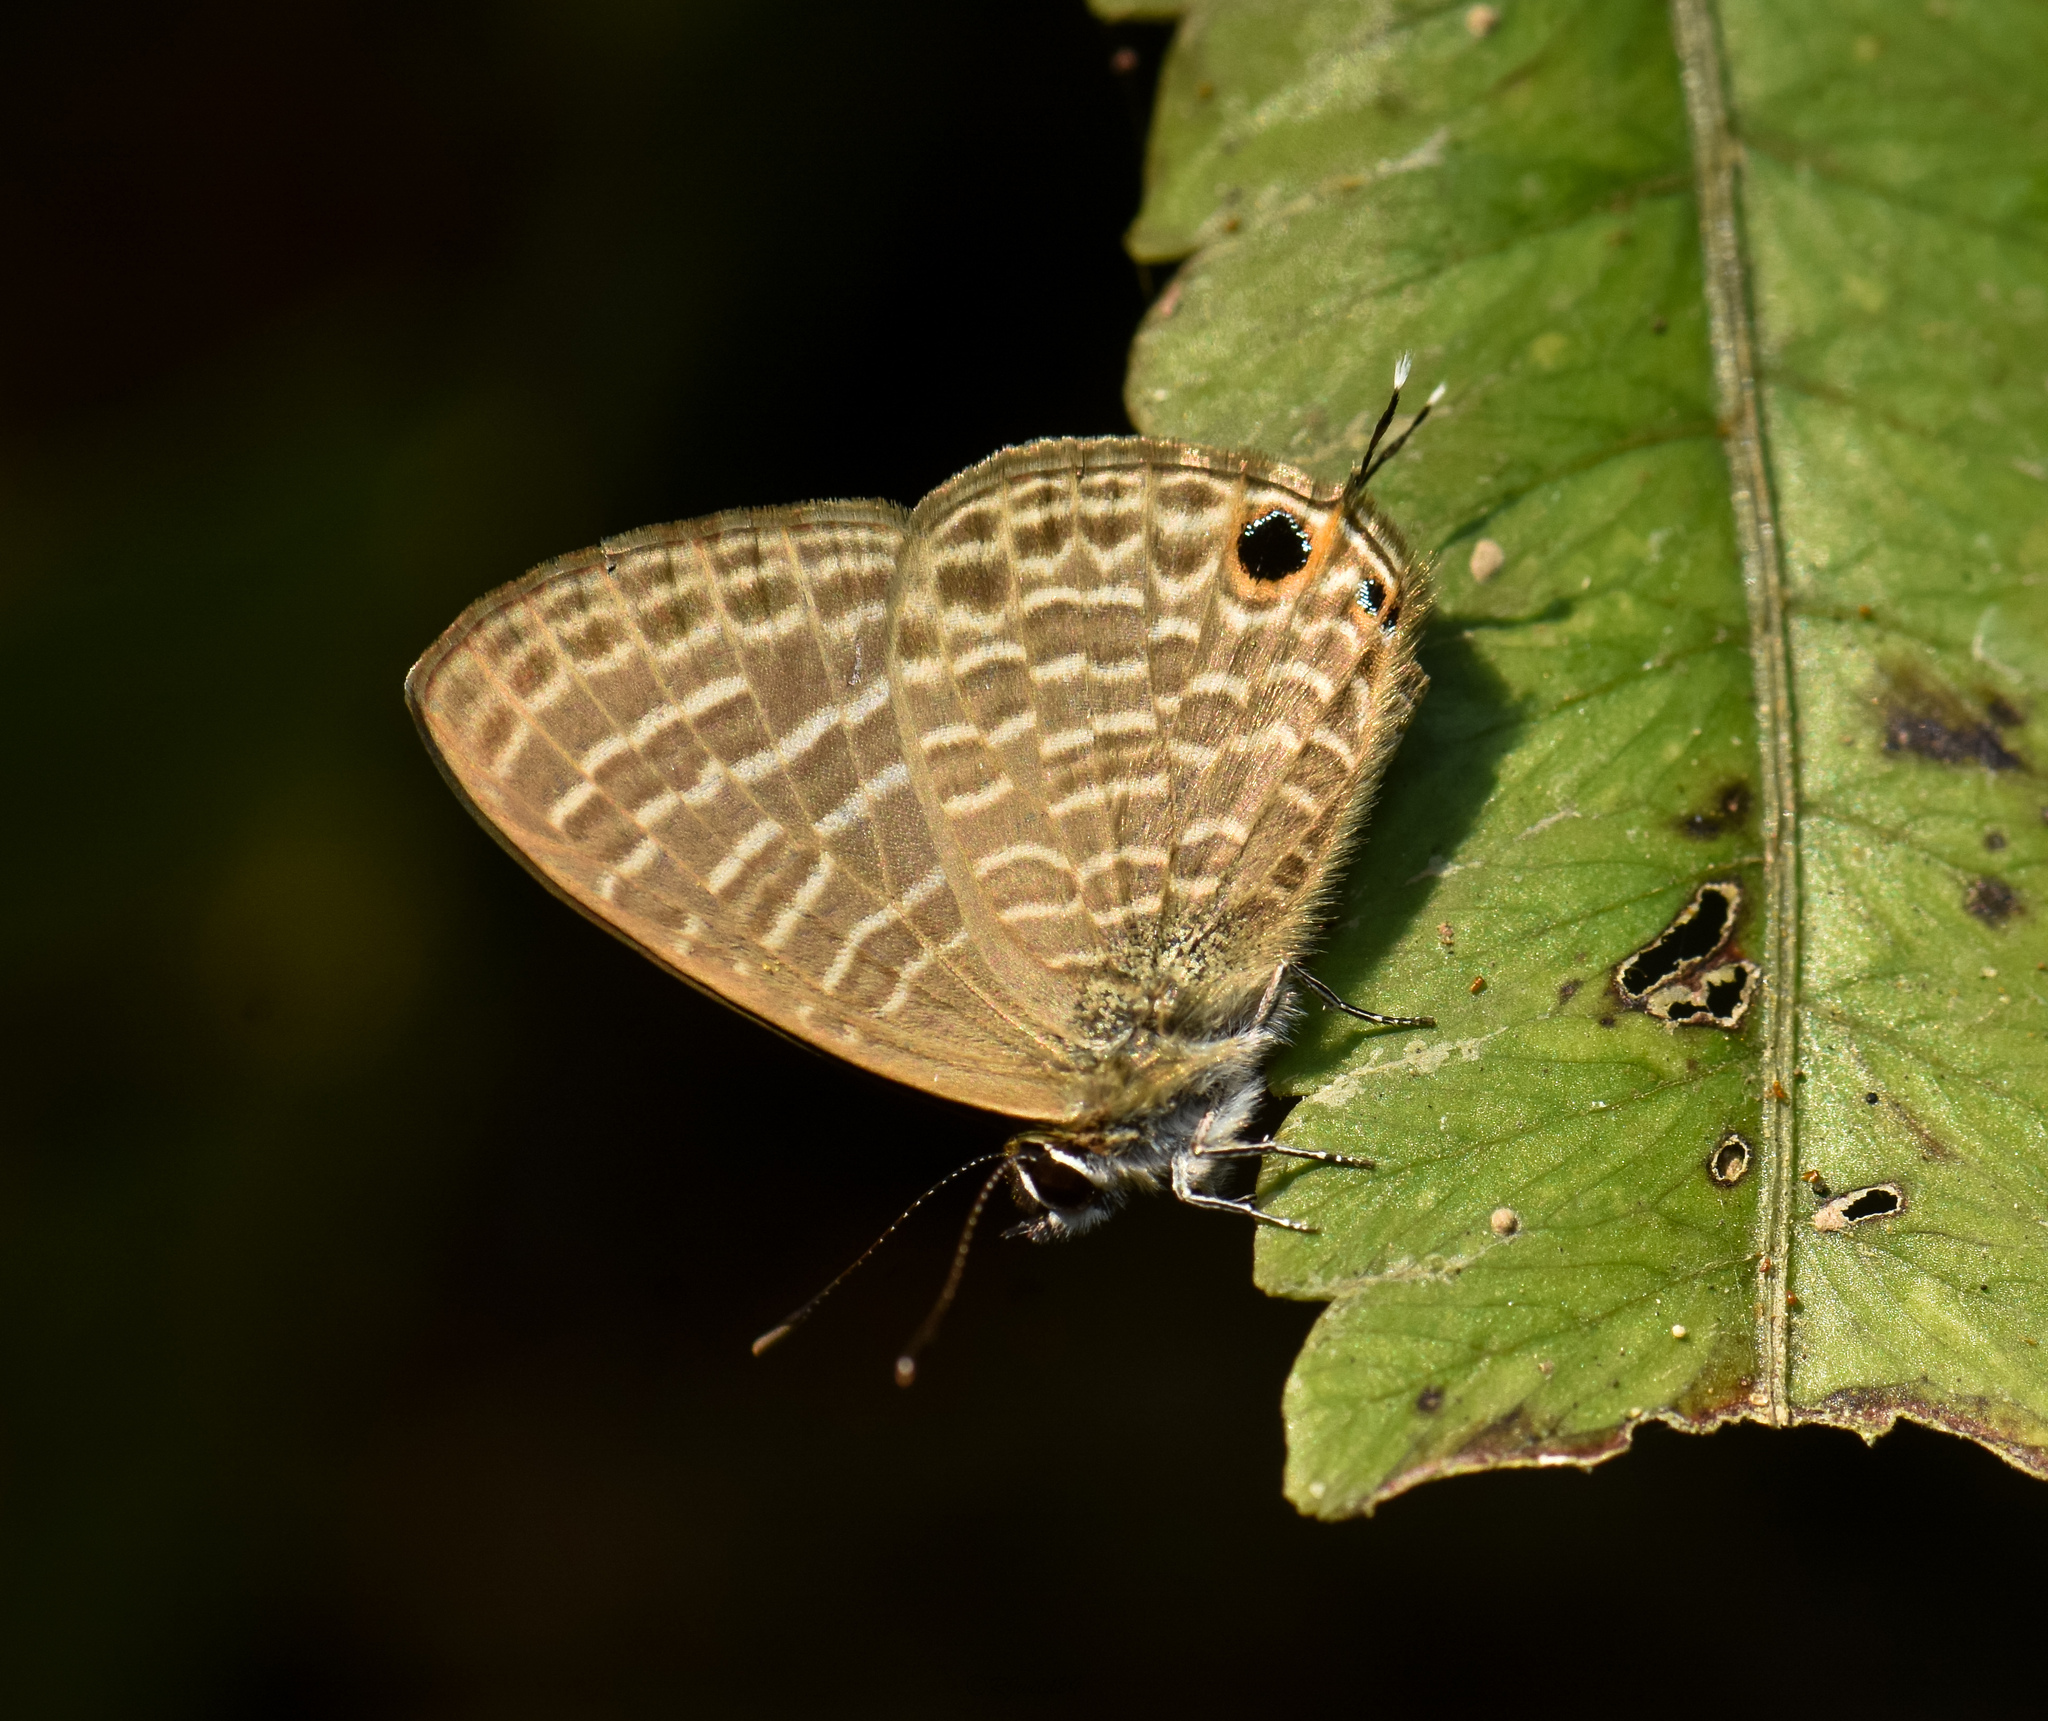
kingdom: Animalia
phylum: Arthropoda
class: Insecta
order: Lepidoptera
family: Lycaenidae
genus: Nacaduba
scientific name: Nacaduba kurava
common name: Transparent 6-line blue
